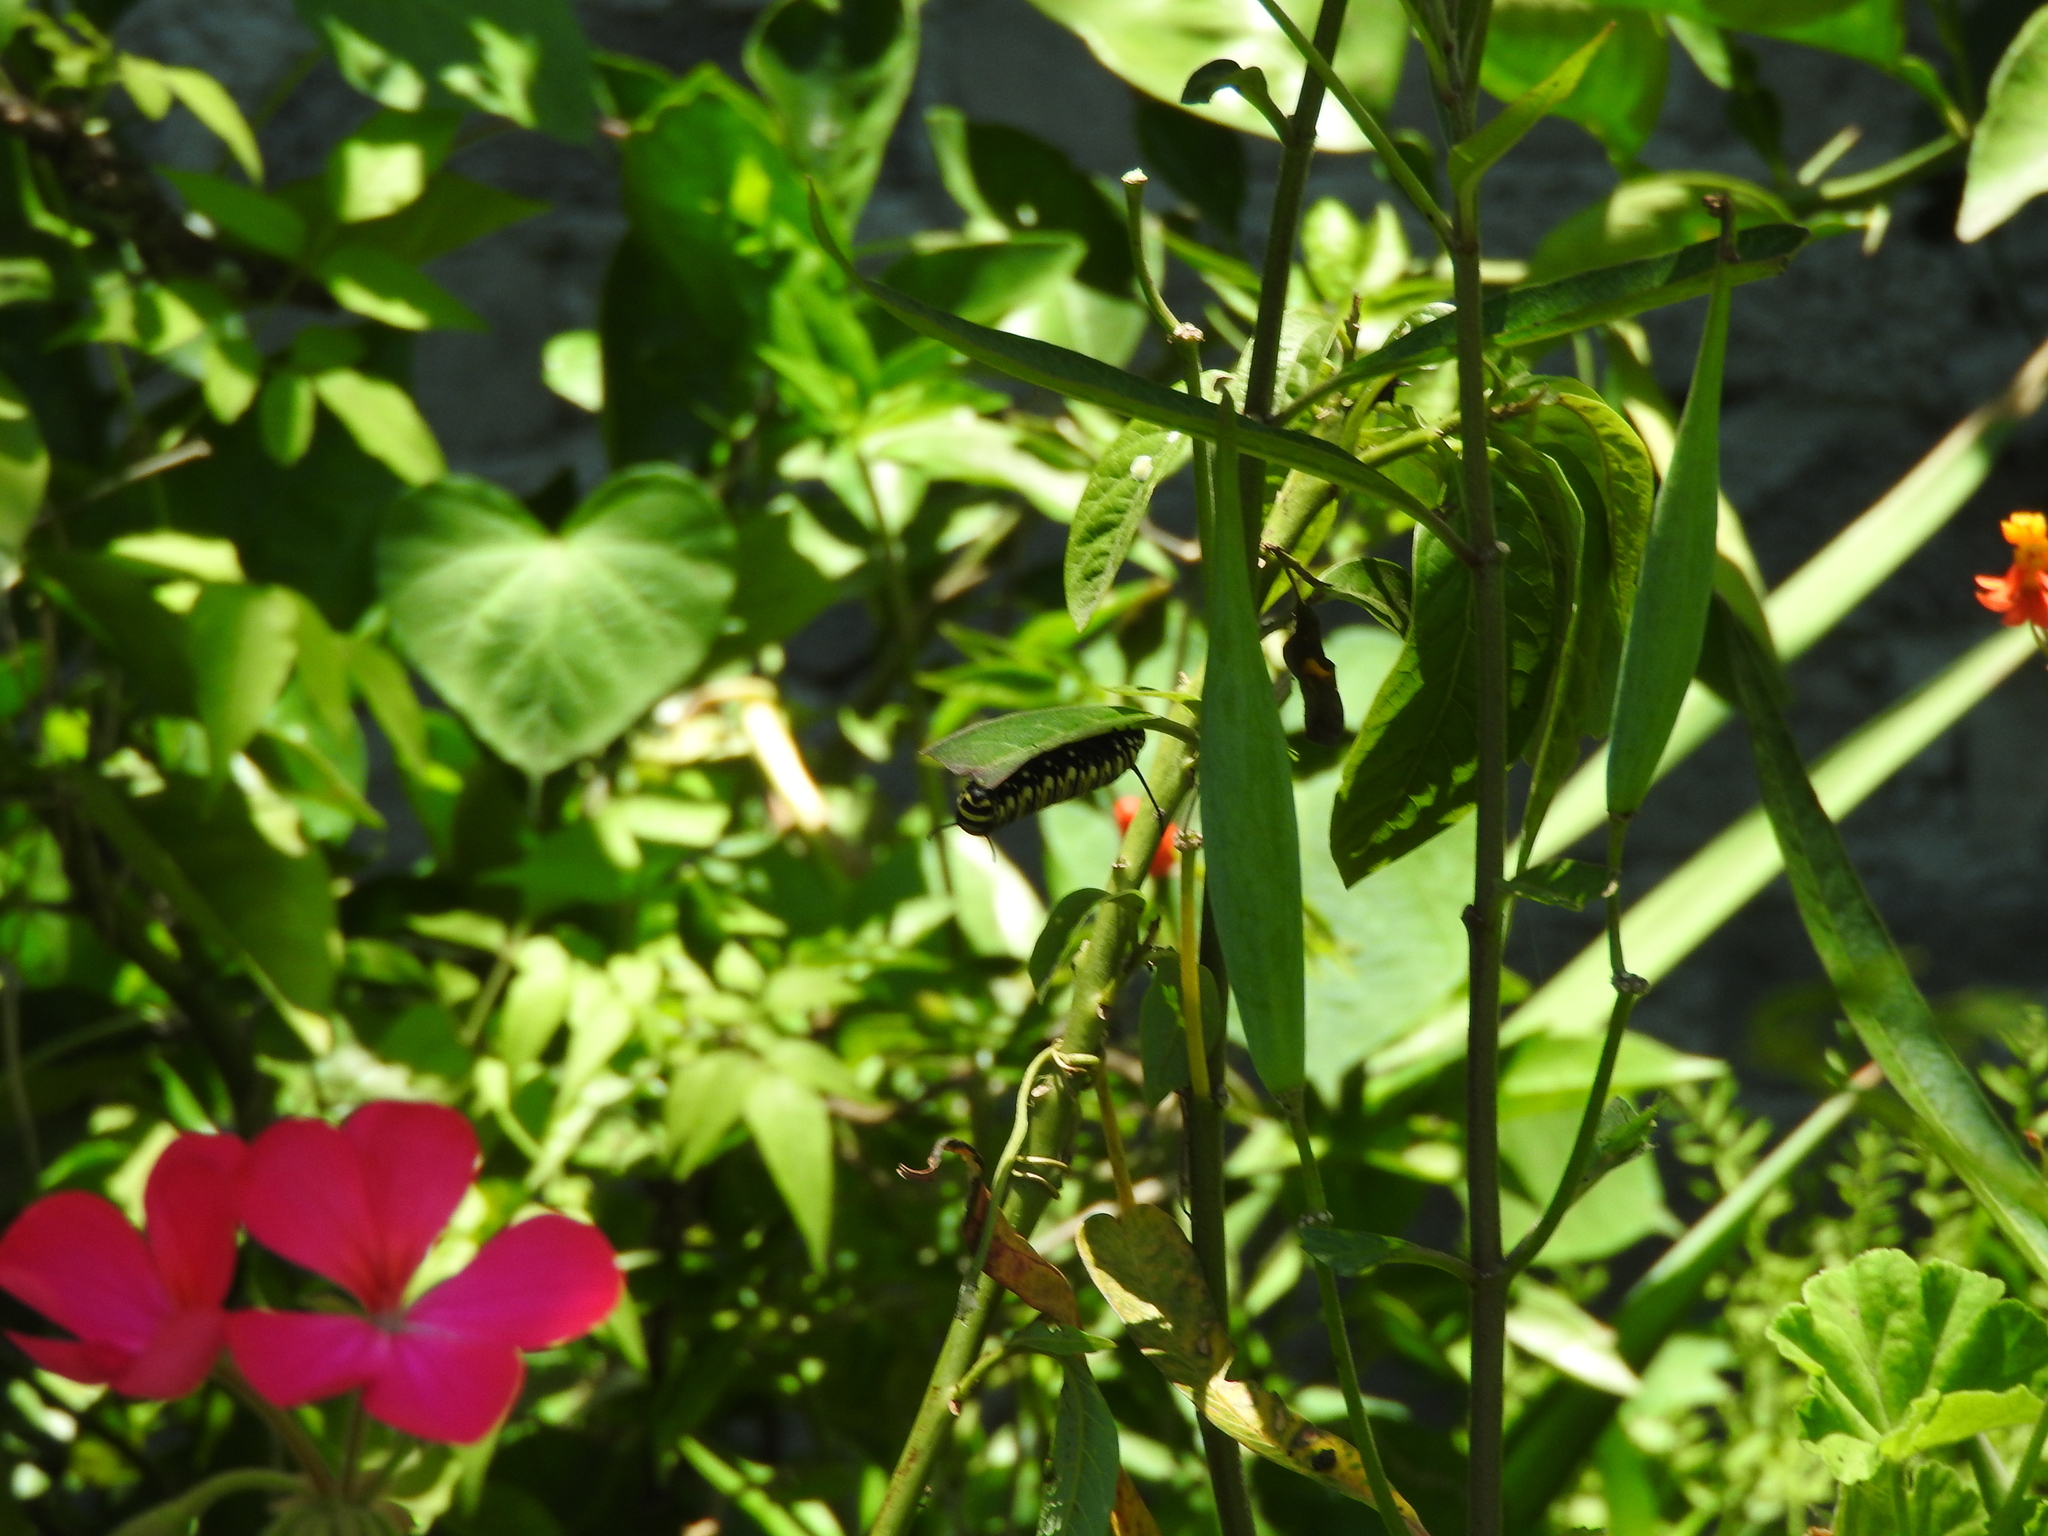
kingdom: Animalia
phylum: Arthropoda
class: Insecta
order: Lepidoptera
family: Nymphalidae
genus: Danaus
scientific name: Danaus plexippus
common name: Monarch
